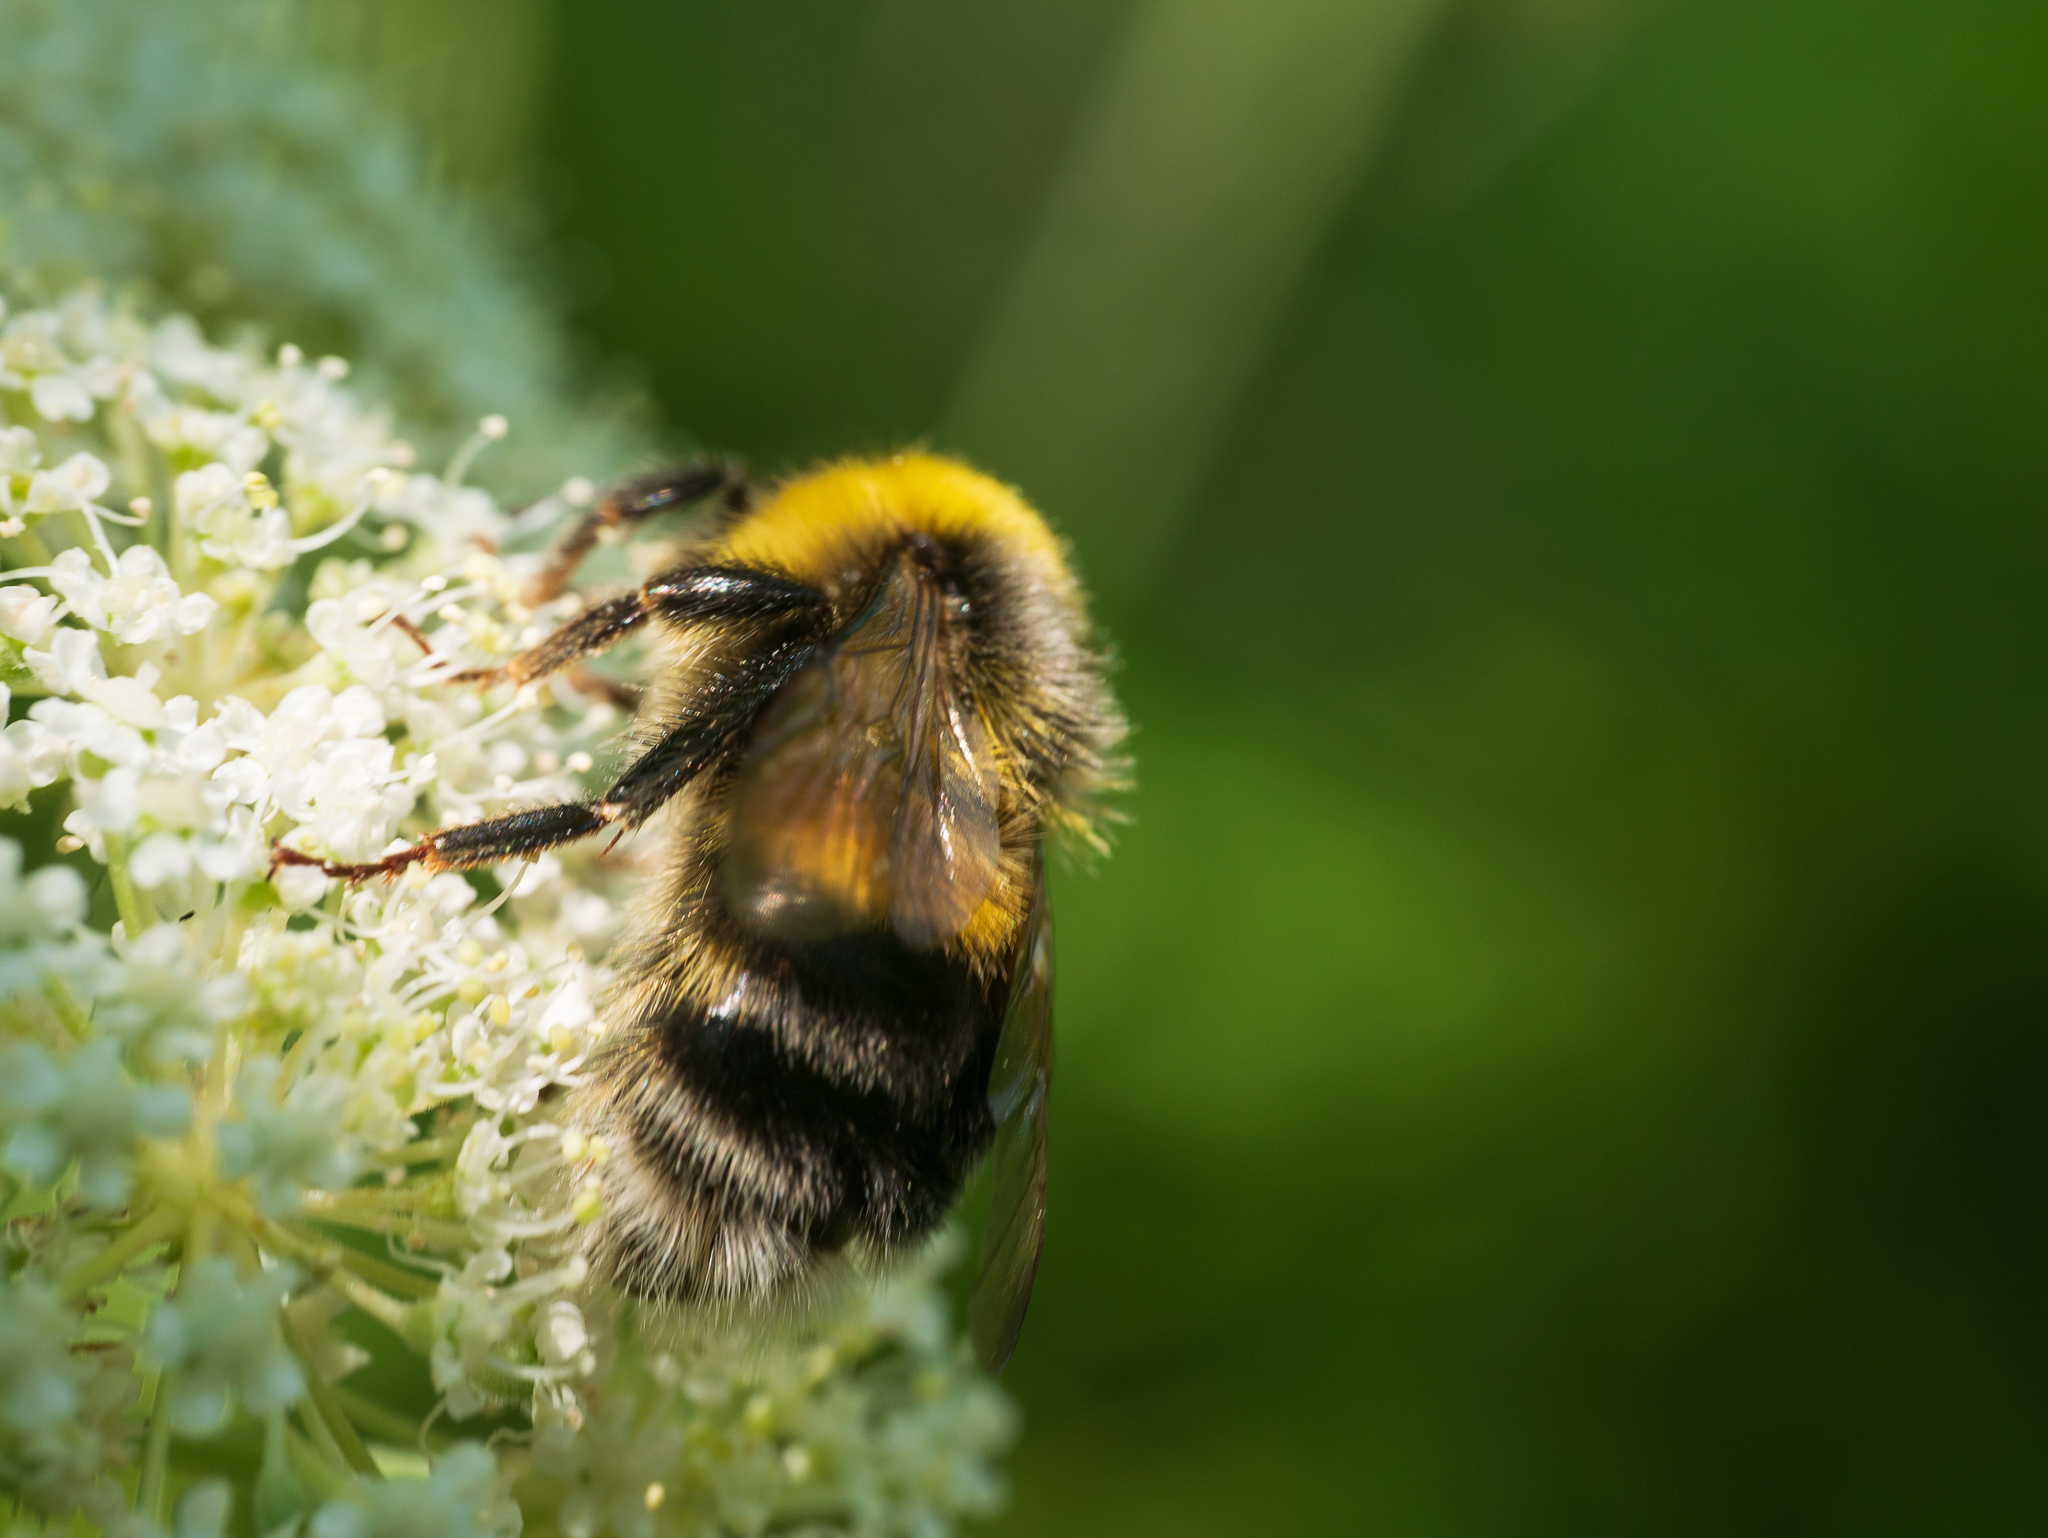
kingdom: Animalia
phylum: Arthropoda
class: Insecta
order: Hymenoptera
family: Apidae
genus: Bombus
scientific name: Bombus lucorum
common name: White-tailed bumblebee
